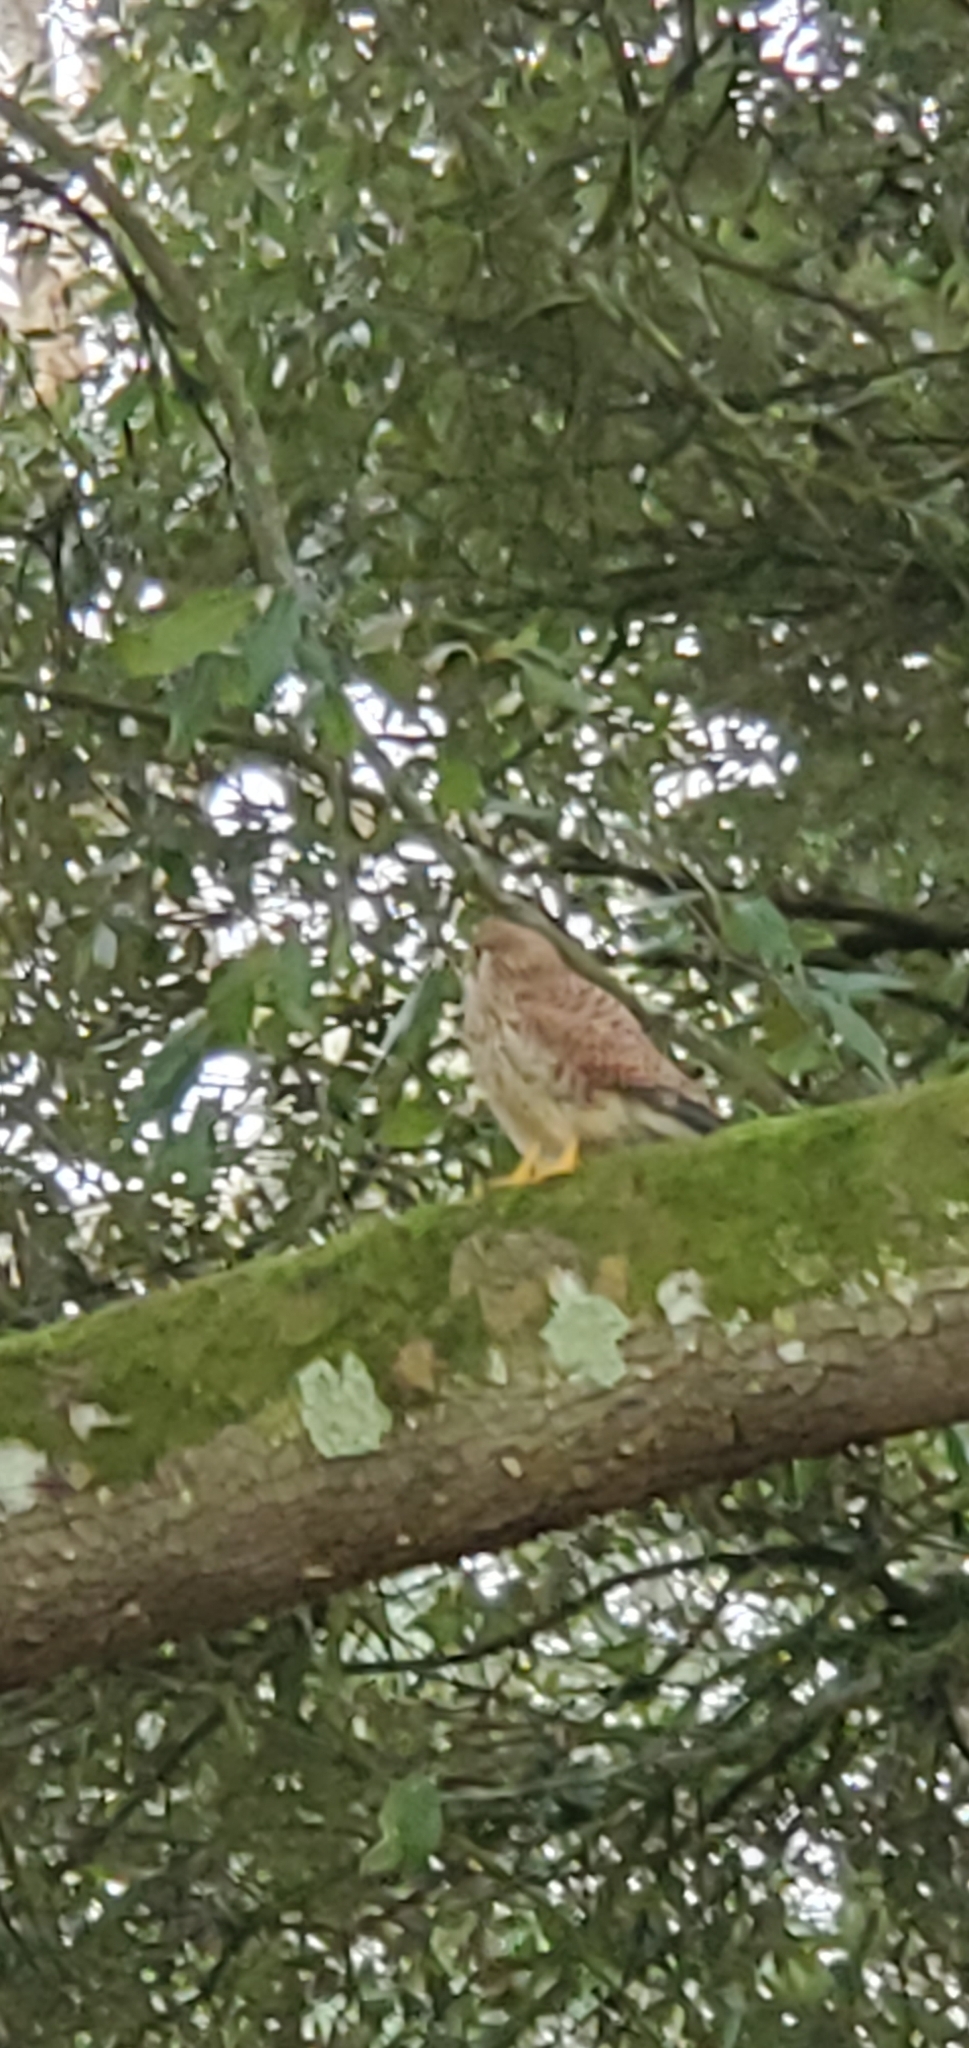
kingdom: Animalia
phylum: Chordata
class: Aves
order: Falconiformes
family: Falconidae
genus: Falco
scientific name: Falco tinnunculus
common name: Common kestrel
